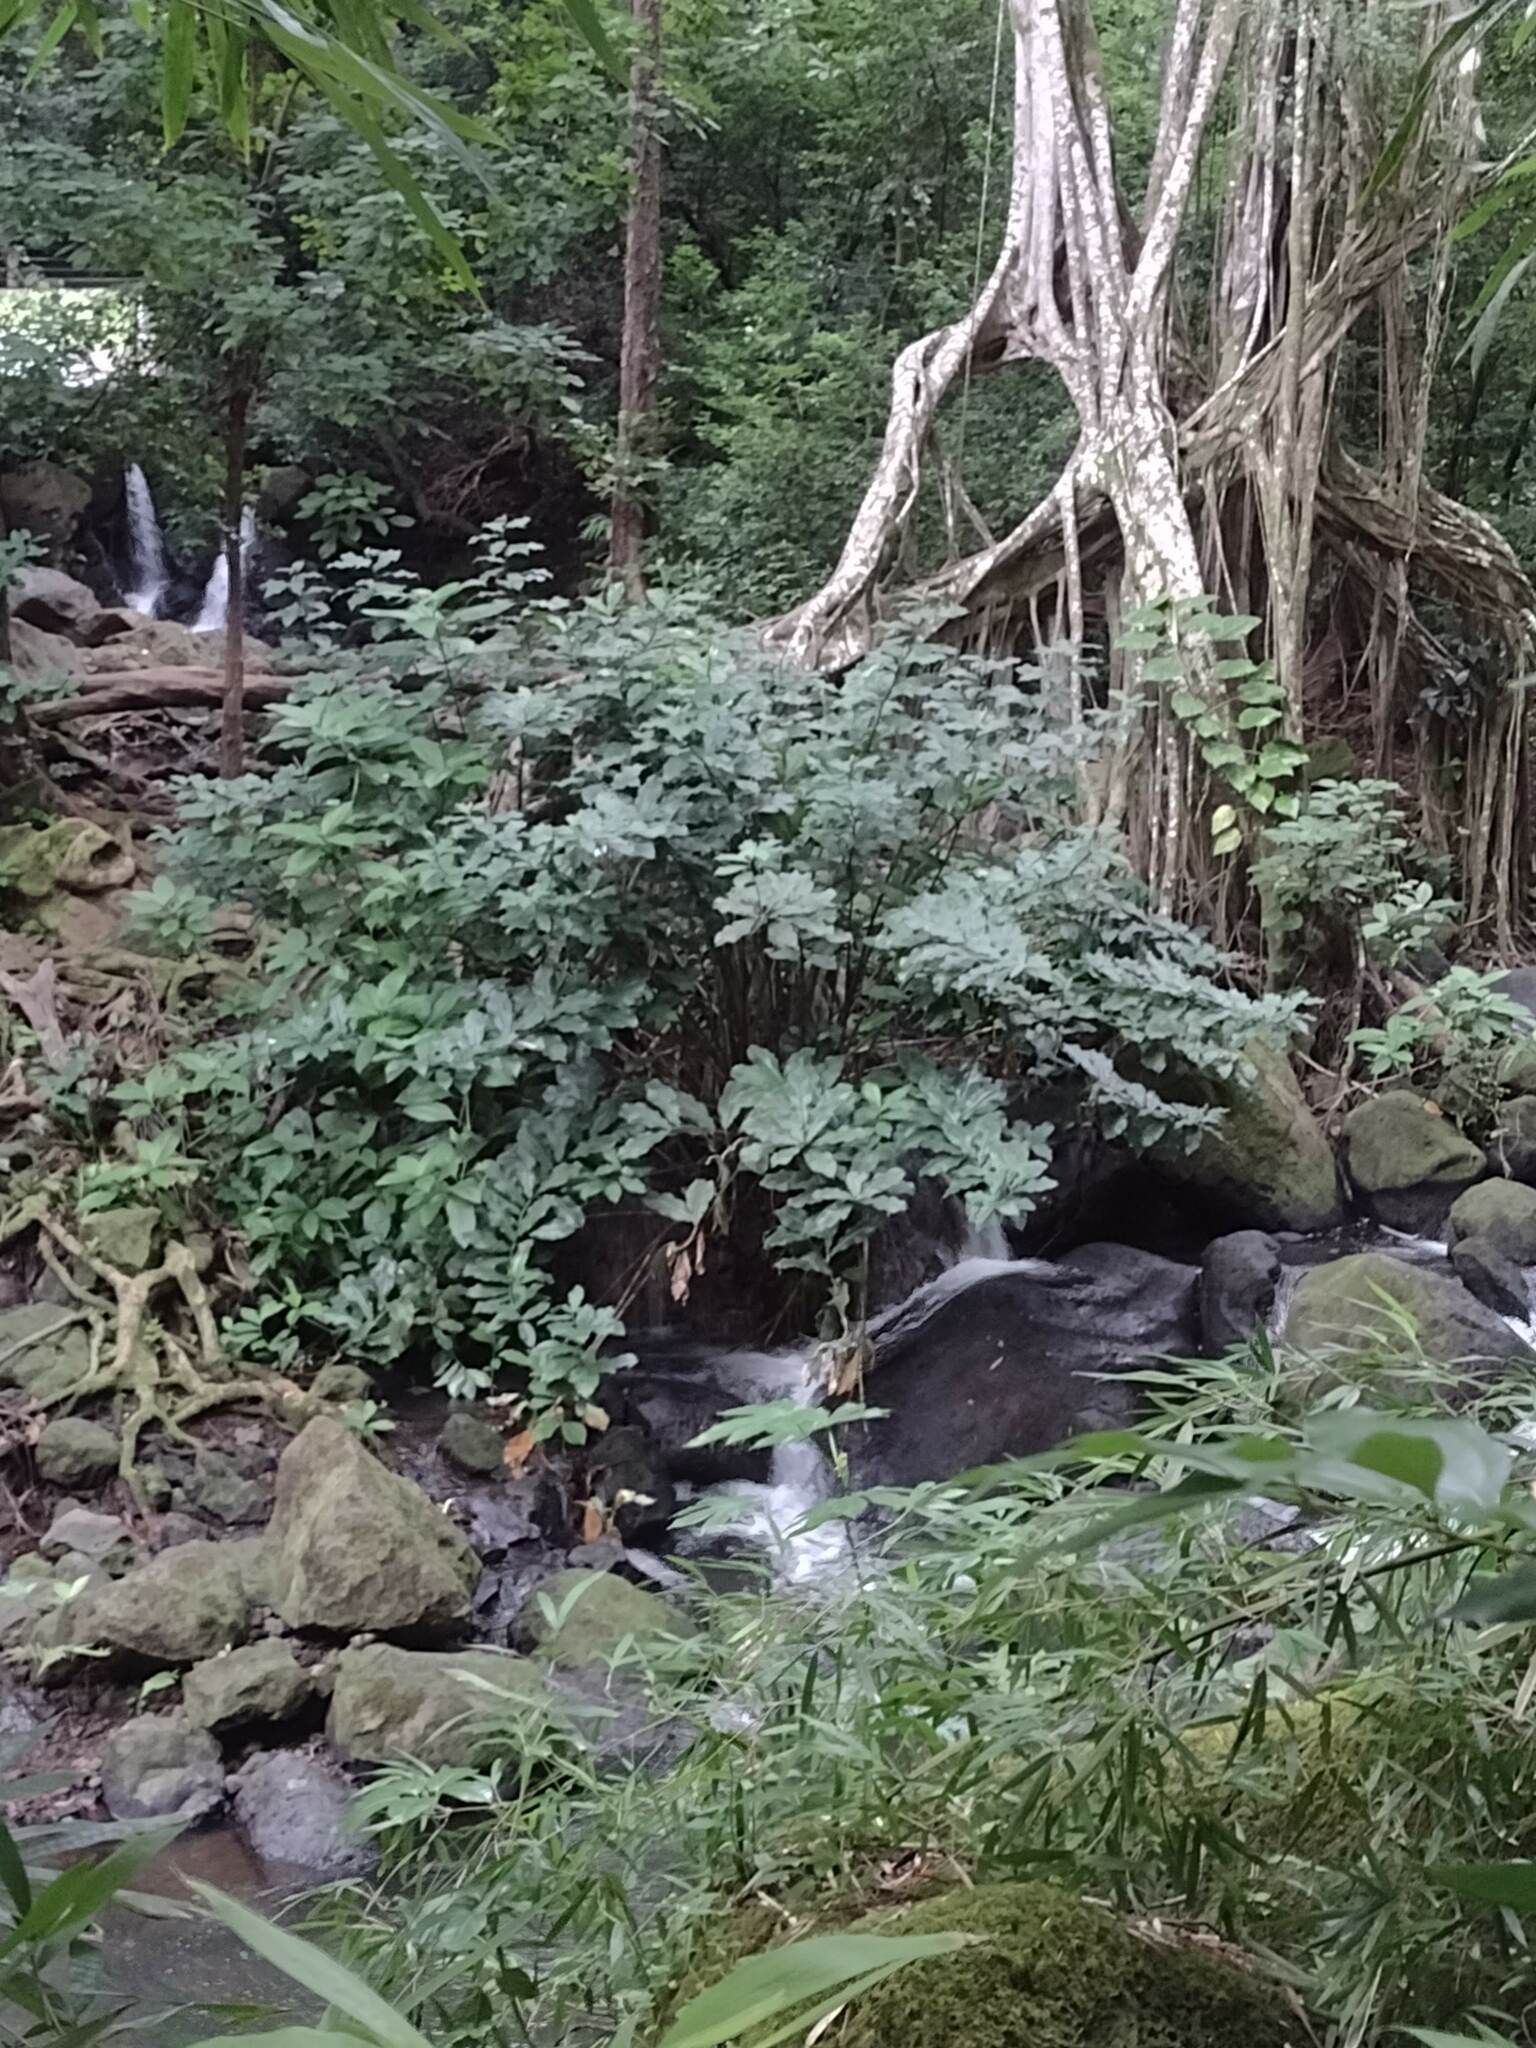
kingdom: Plantae
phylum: Tracheophyta
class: Liliopsida
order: Zingiberales
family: Costaceae
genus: Costus
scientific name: Costus woodsonii
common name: Scarlet spiral-ginger
